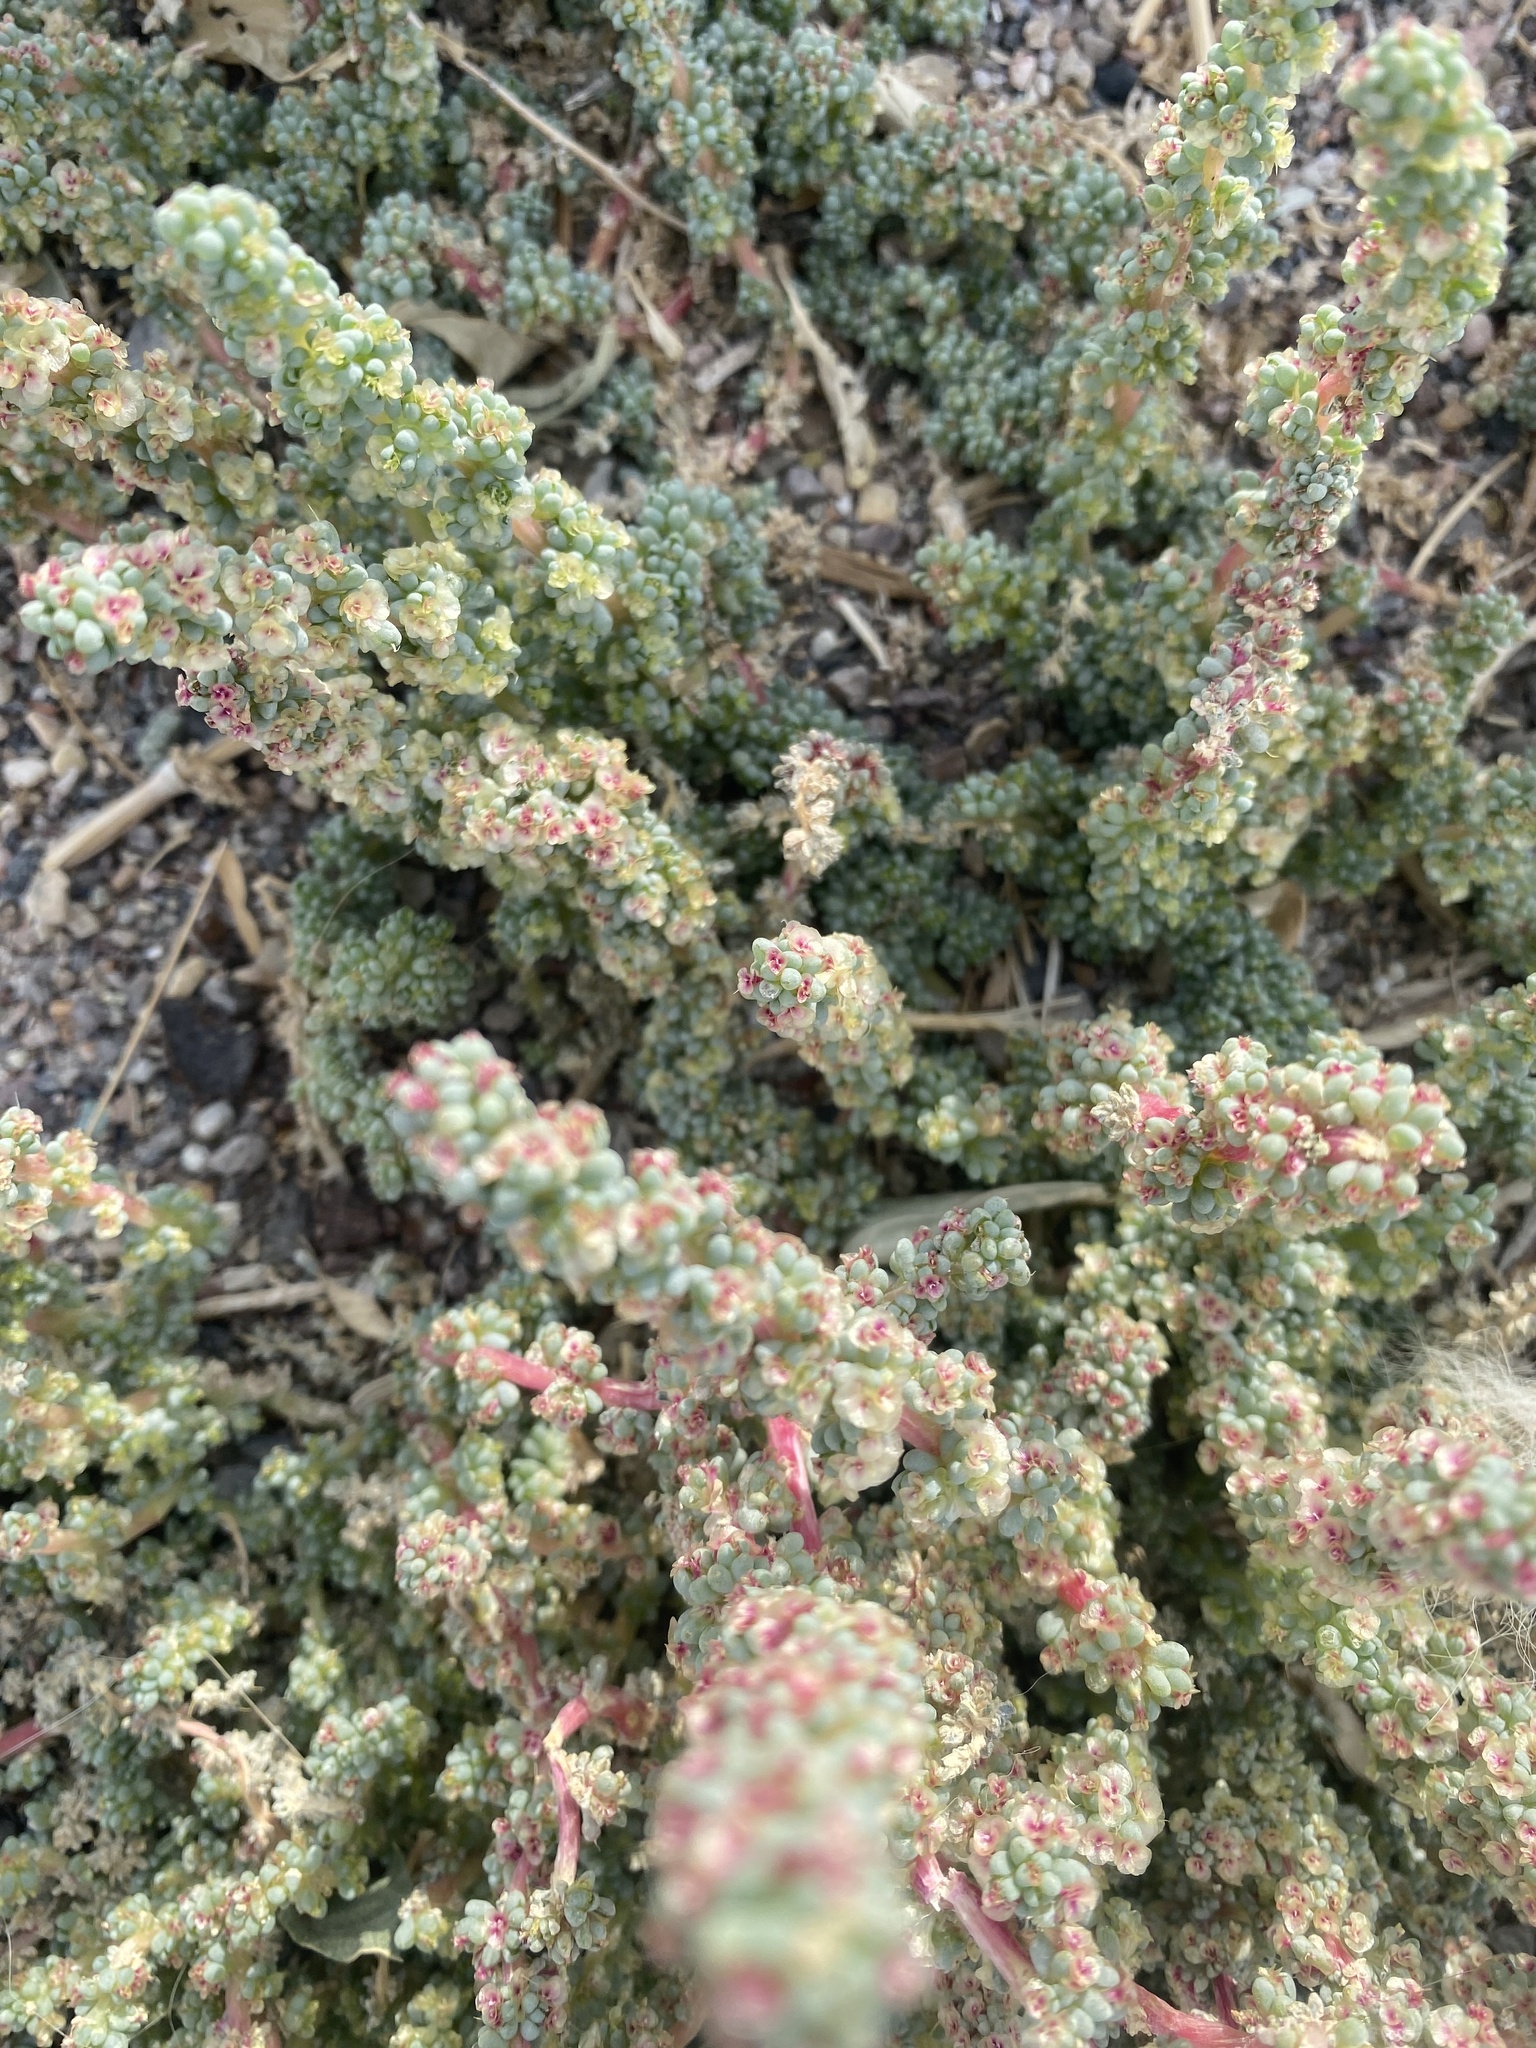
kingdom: Plantae
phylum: Tracheophyta
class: Magnoliopsida
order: Caryophyllales
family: Amaranthaceae
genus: Halogeton
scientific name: Halogeton glomeratus
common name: Saltlover
